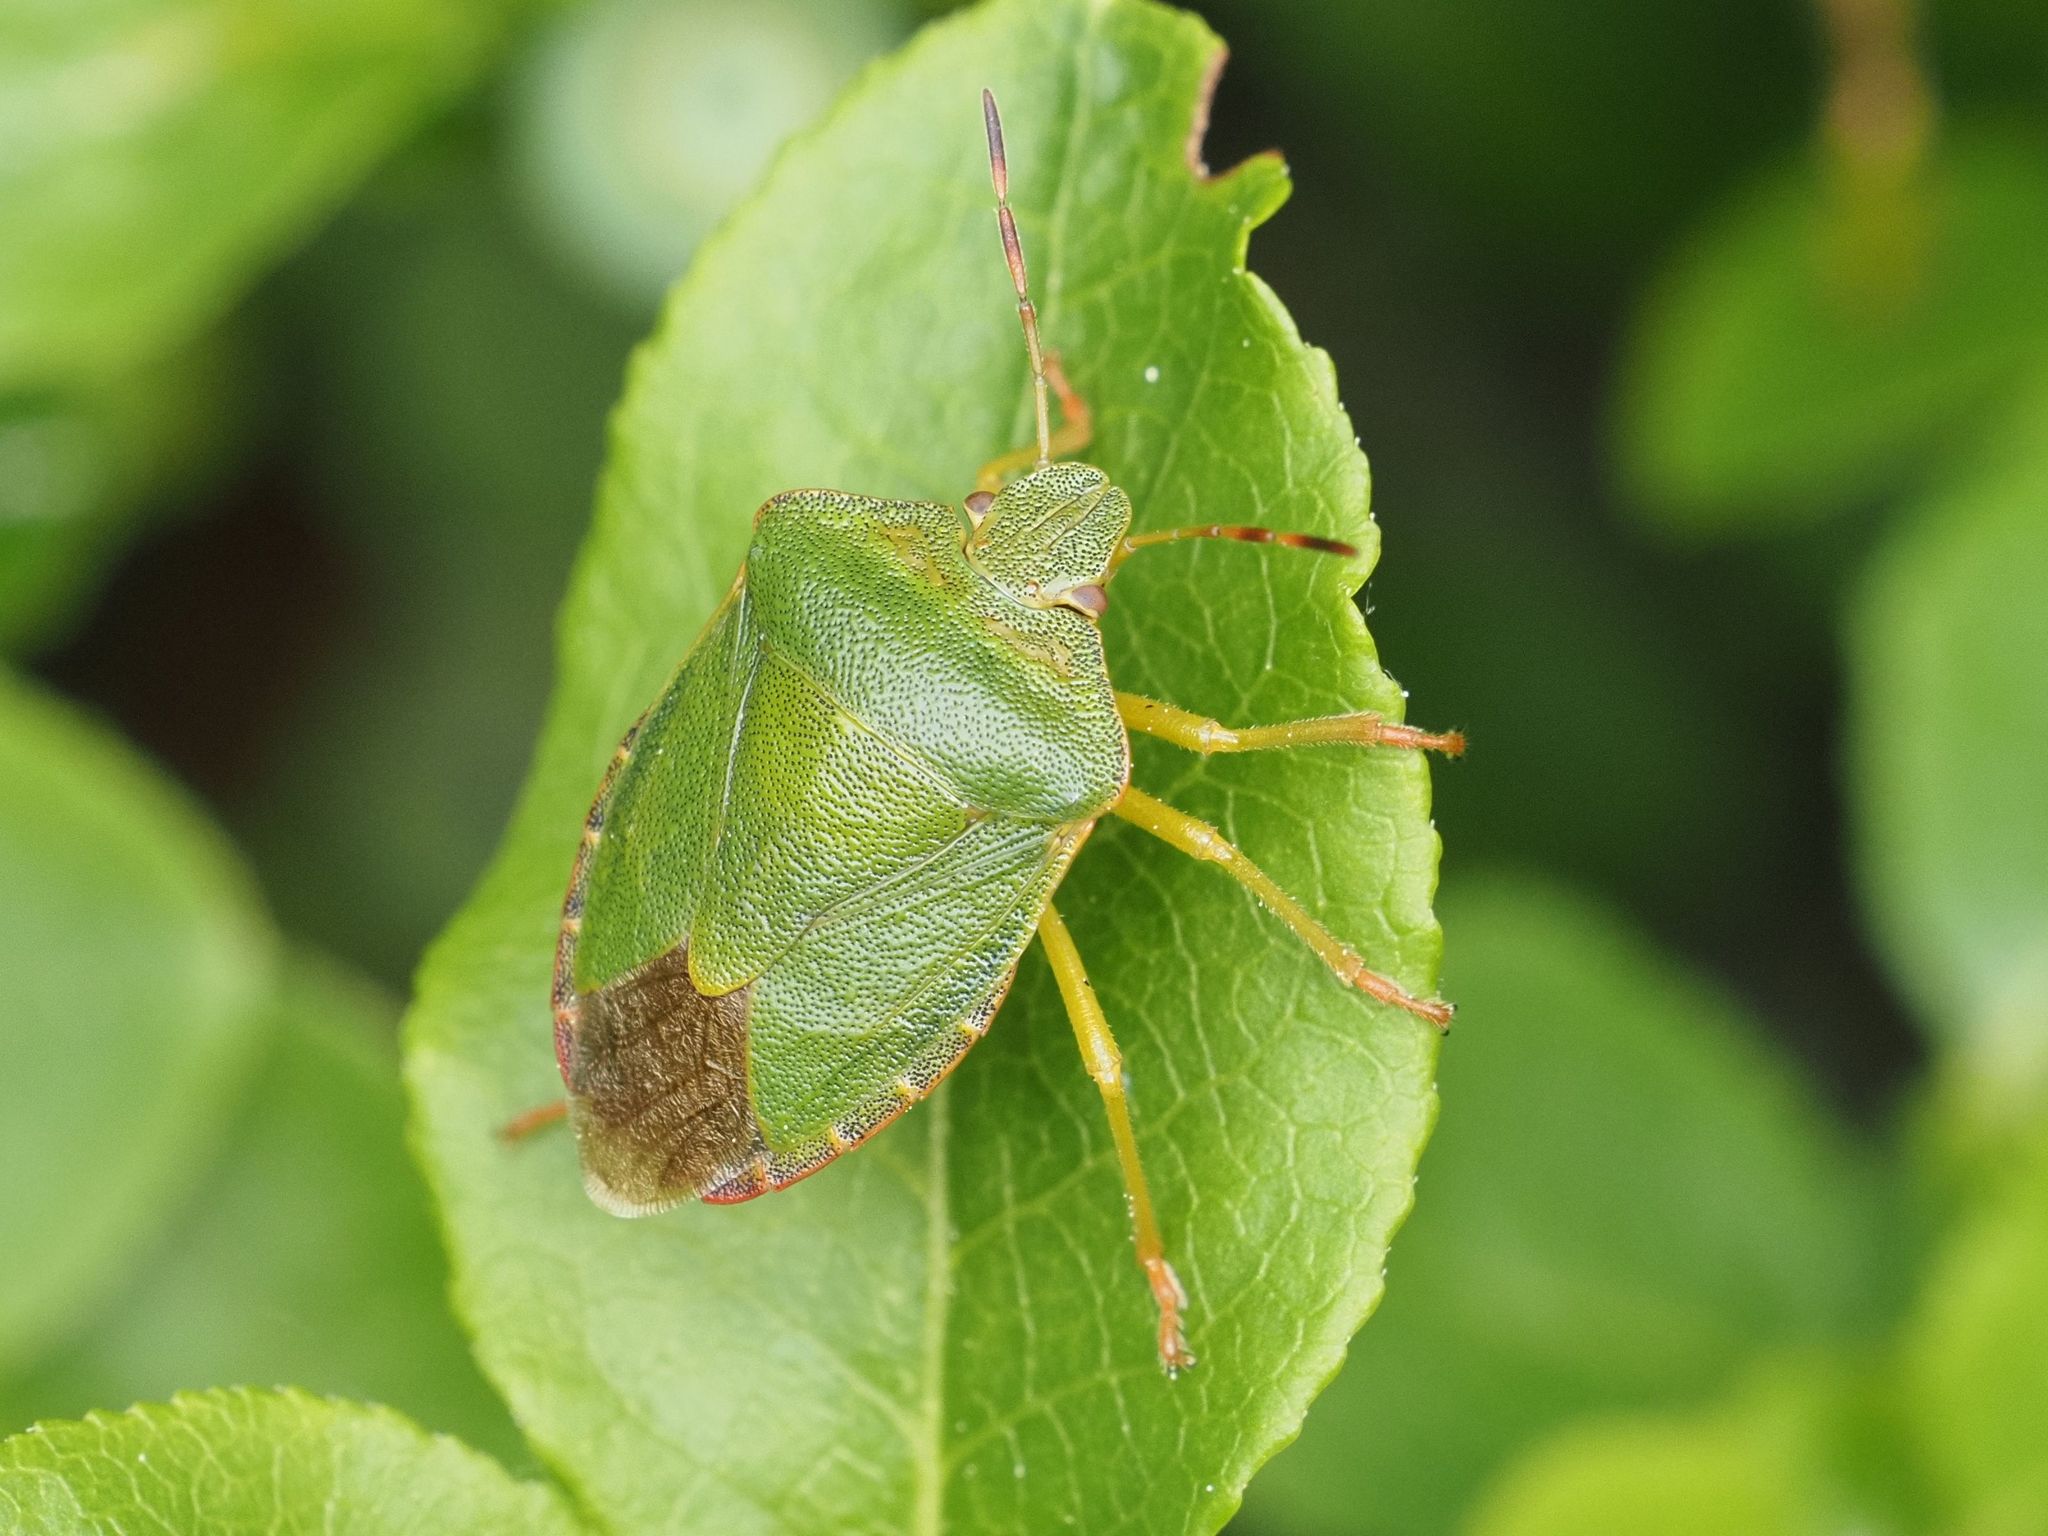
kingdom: Animalia
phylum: Arthropoda
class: Insecta
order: Hemiptera
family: Pentatomidae
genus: Palomena
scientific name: Palomena prasina
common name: Green shieldbug
